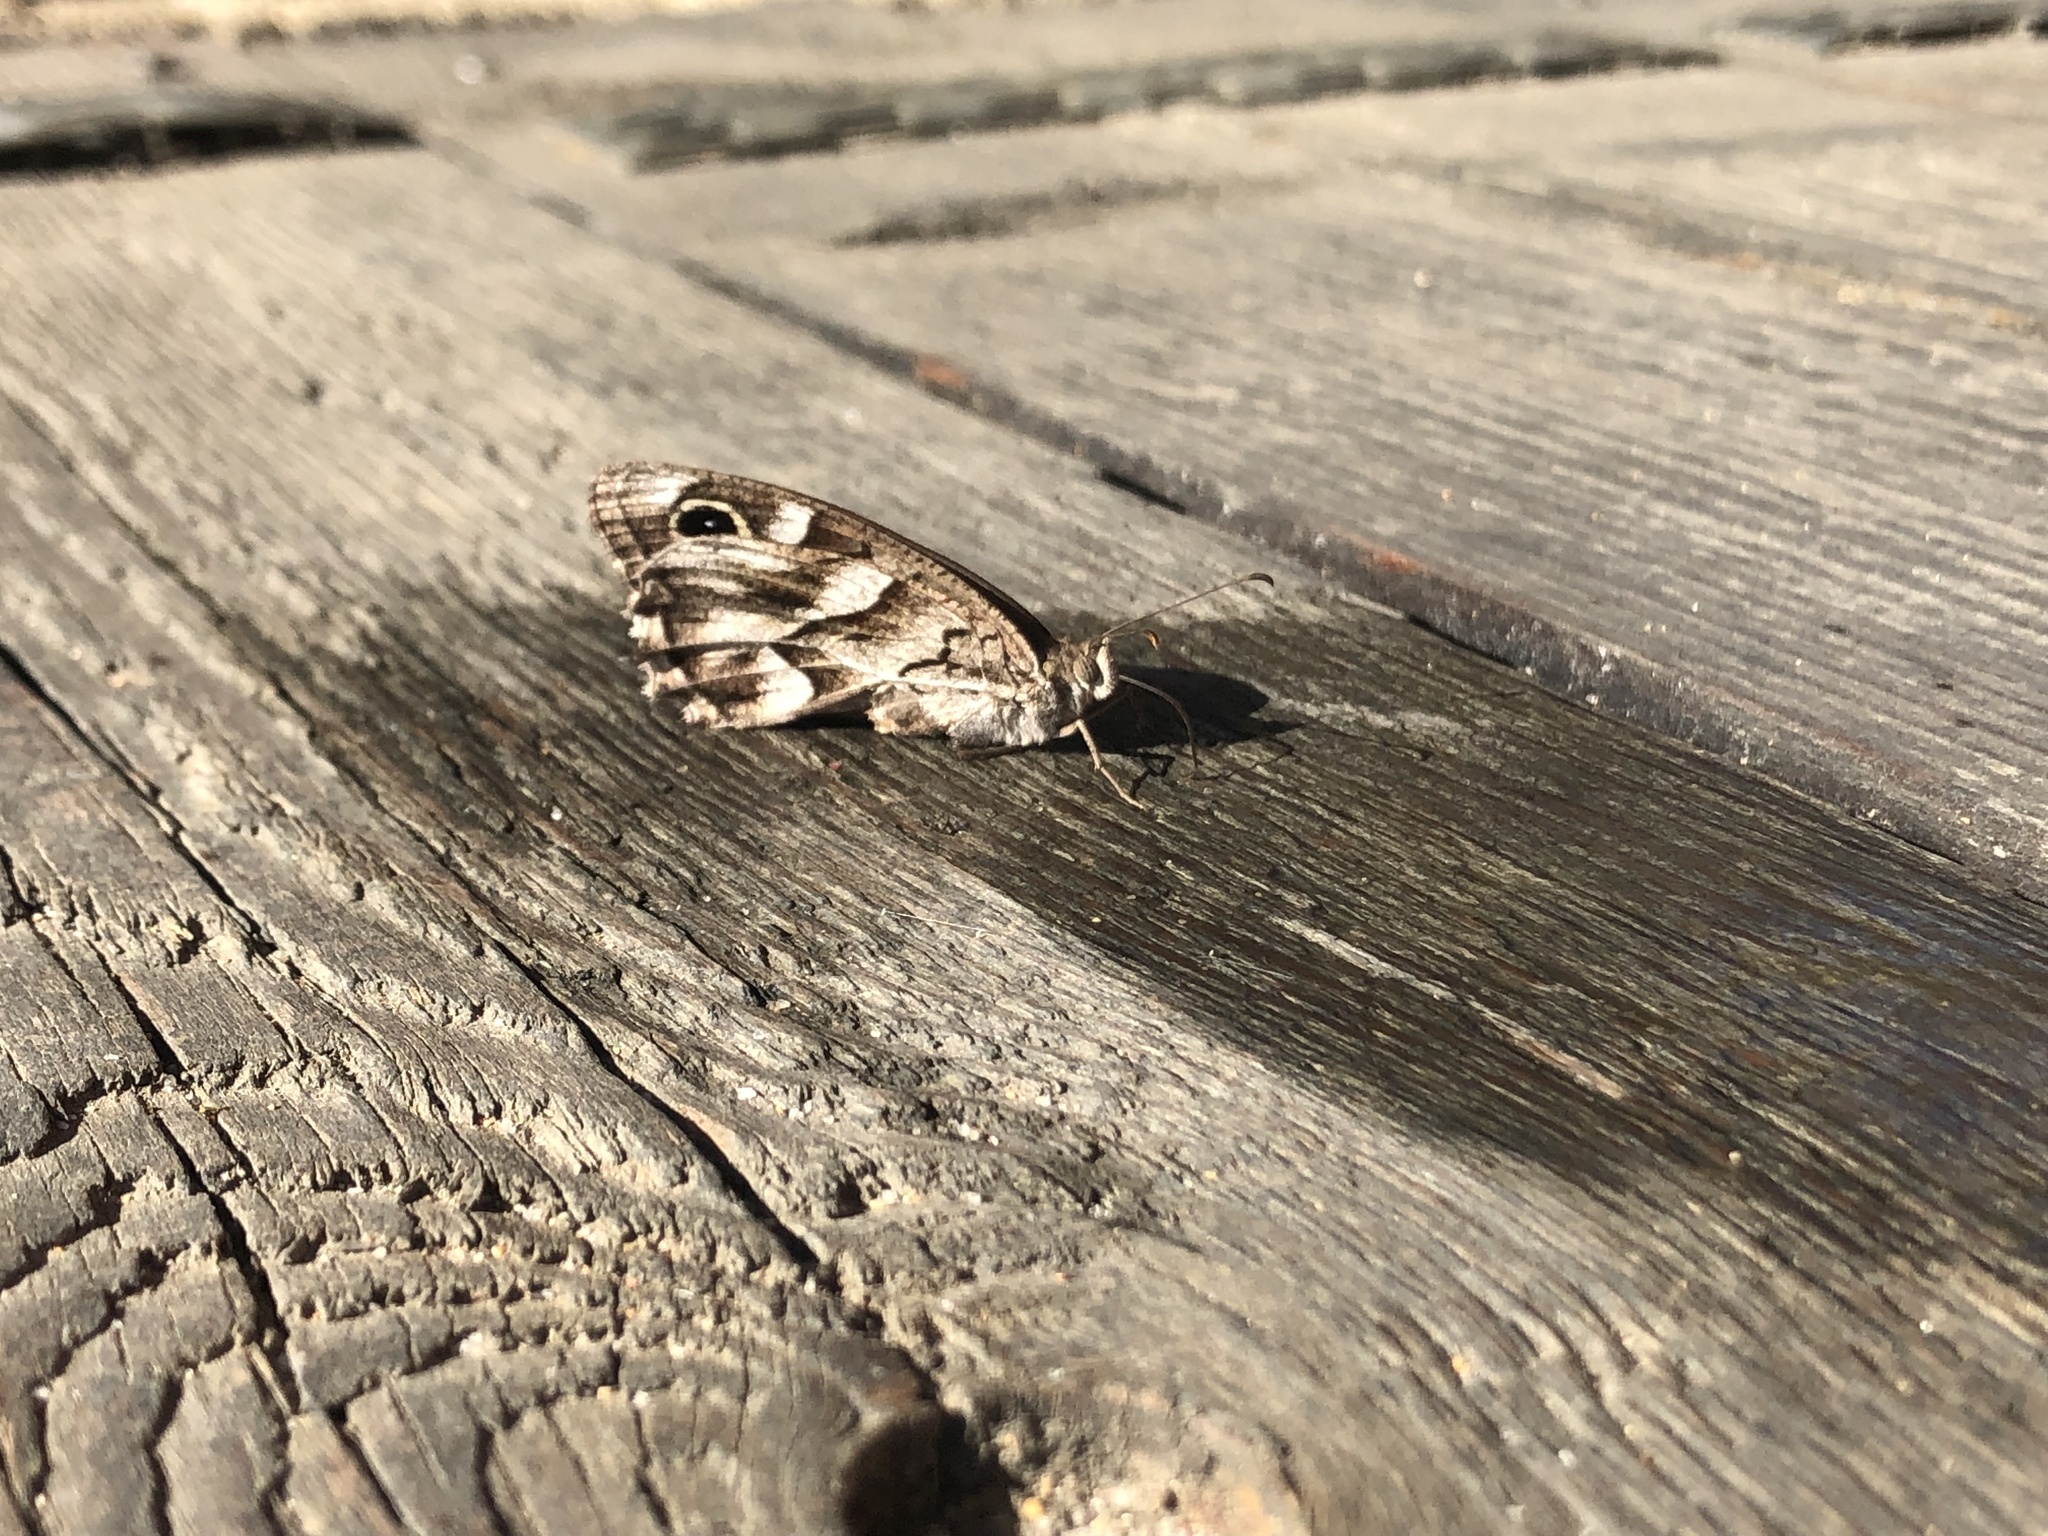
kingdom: Animalia
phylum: Arthropoda
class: Insecta
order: Lepidoptera
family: Nymphalidae
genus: Hipparchia
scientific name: Hipparchia fidia
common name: Striped grayling
